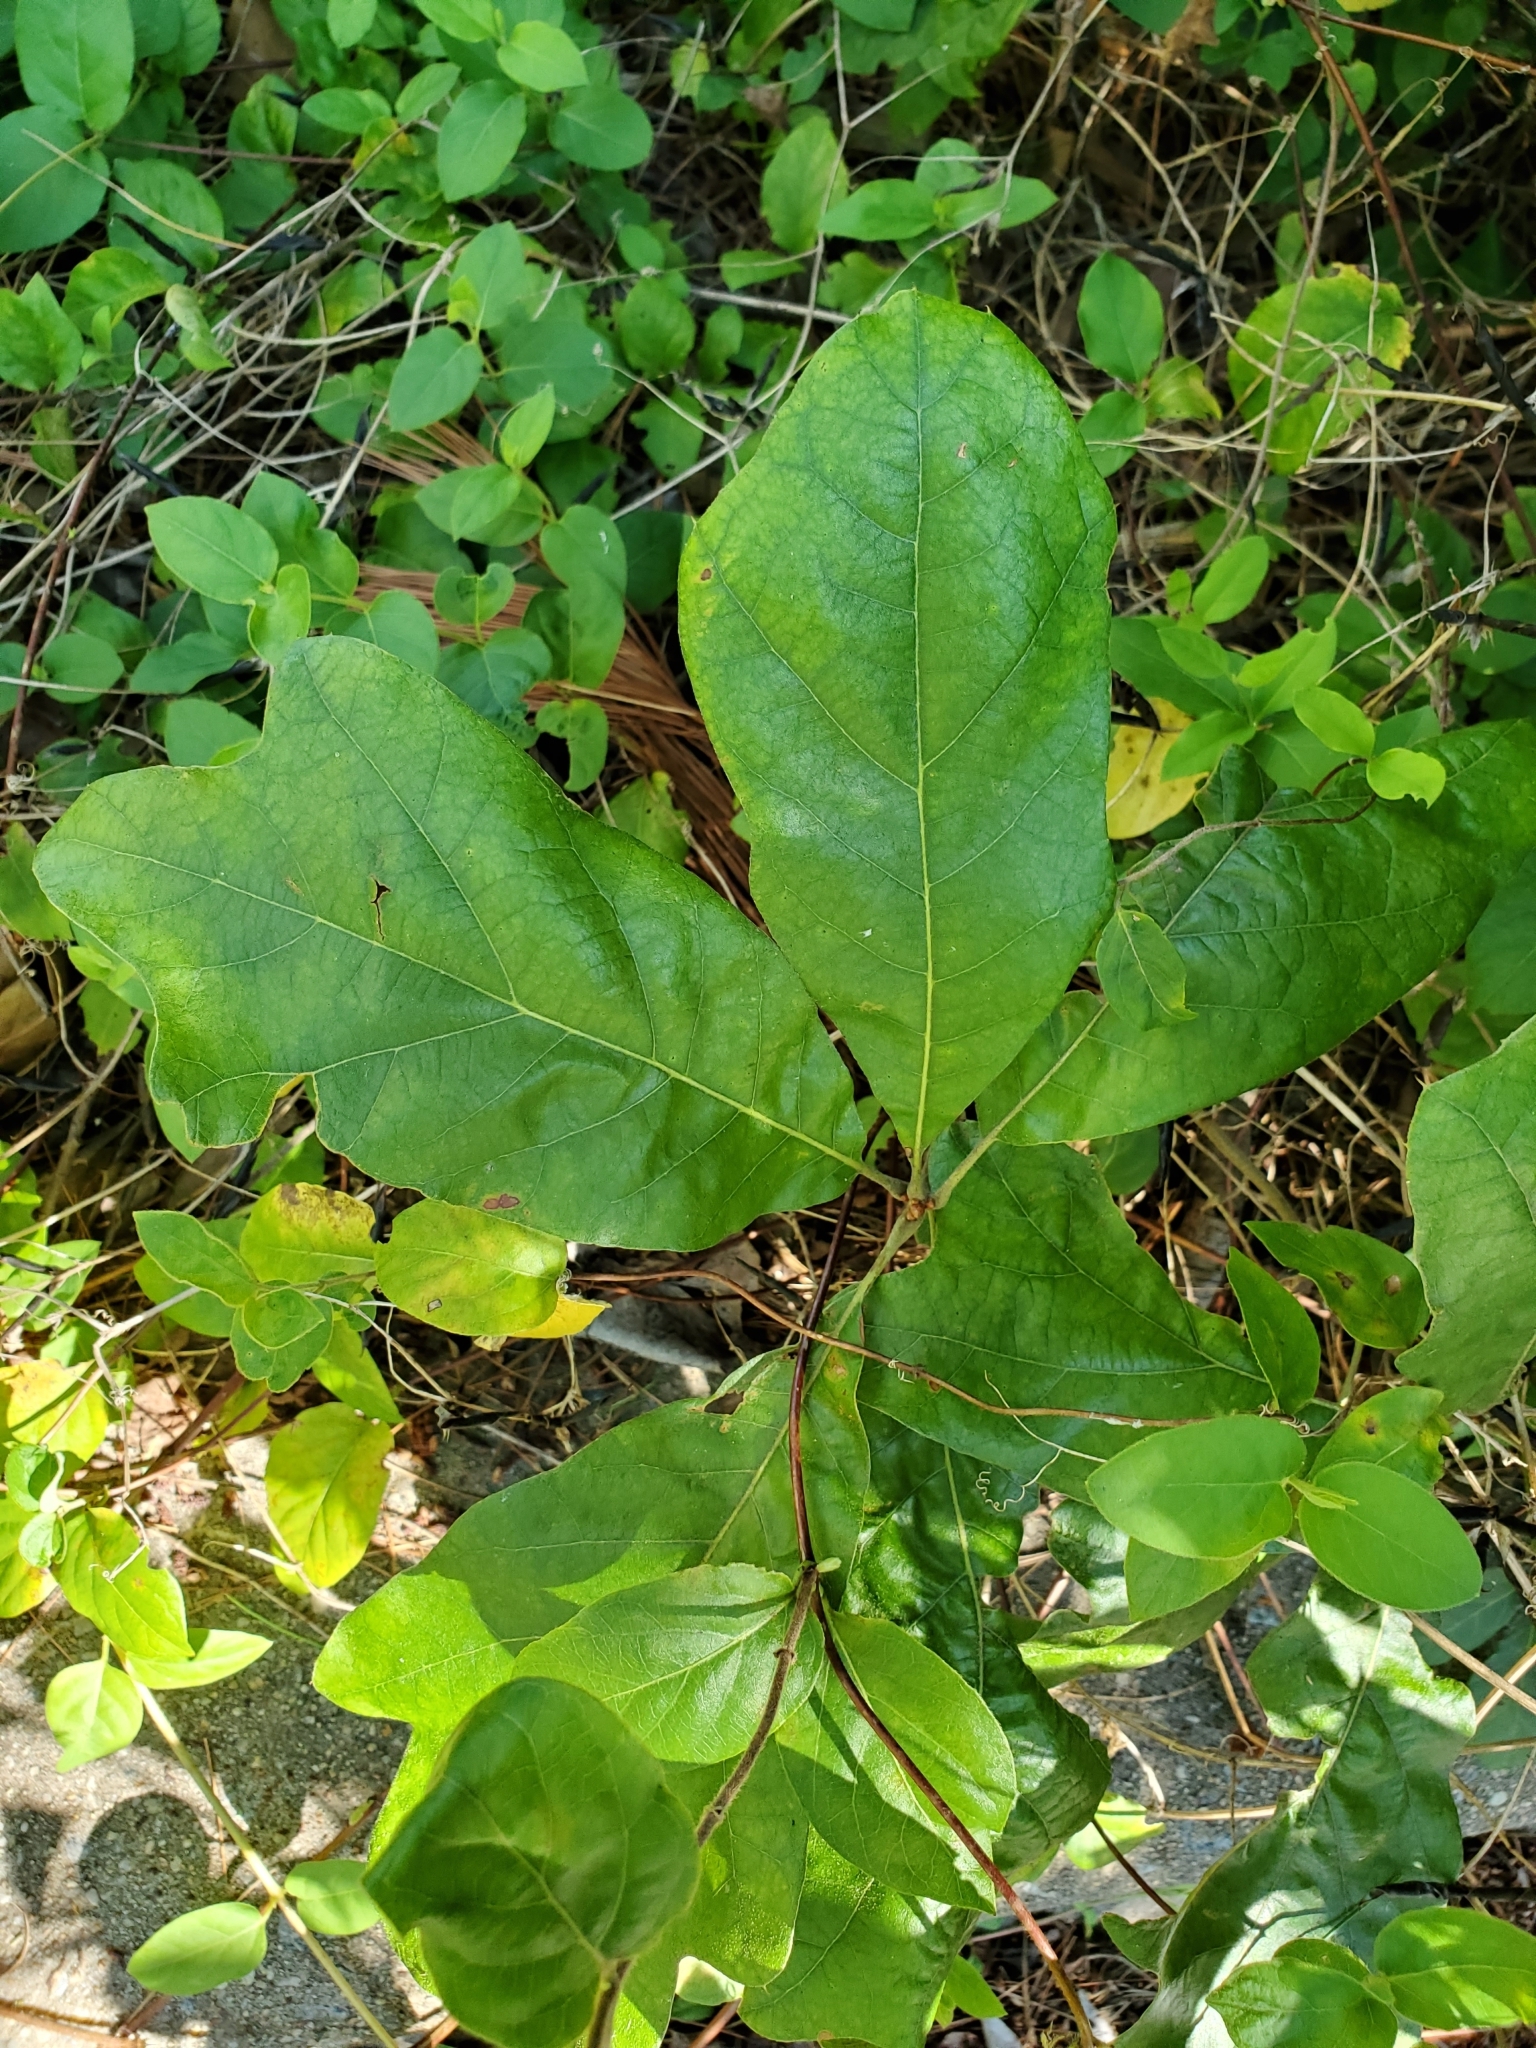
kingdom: Plantae
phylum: Tracheophyta
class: Magnoliopsida
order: Fagales
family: Fagaceae
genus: Quercus
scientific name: Quercus falcata
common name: Southern red oak
